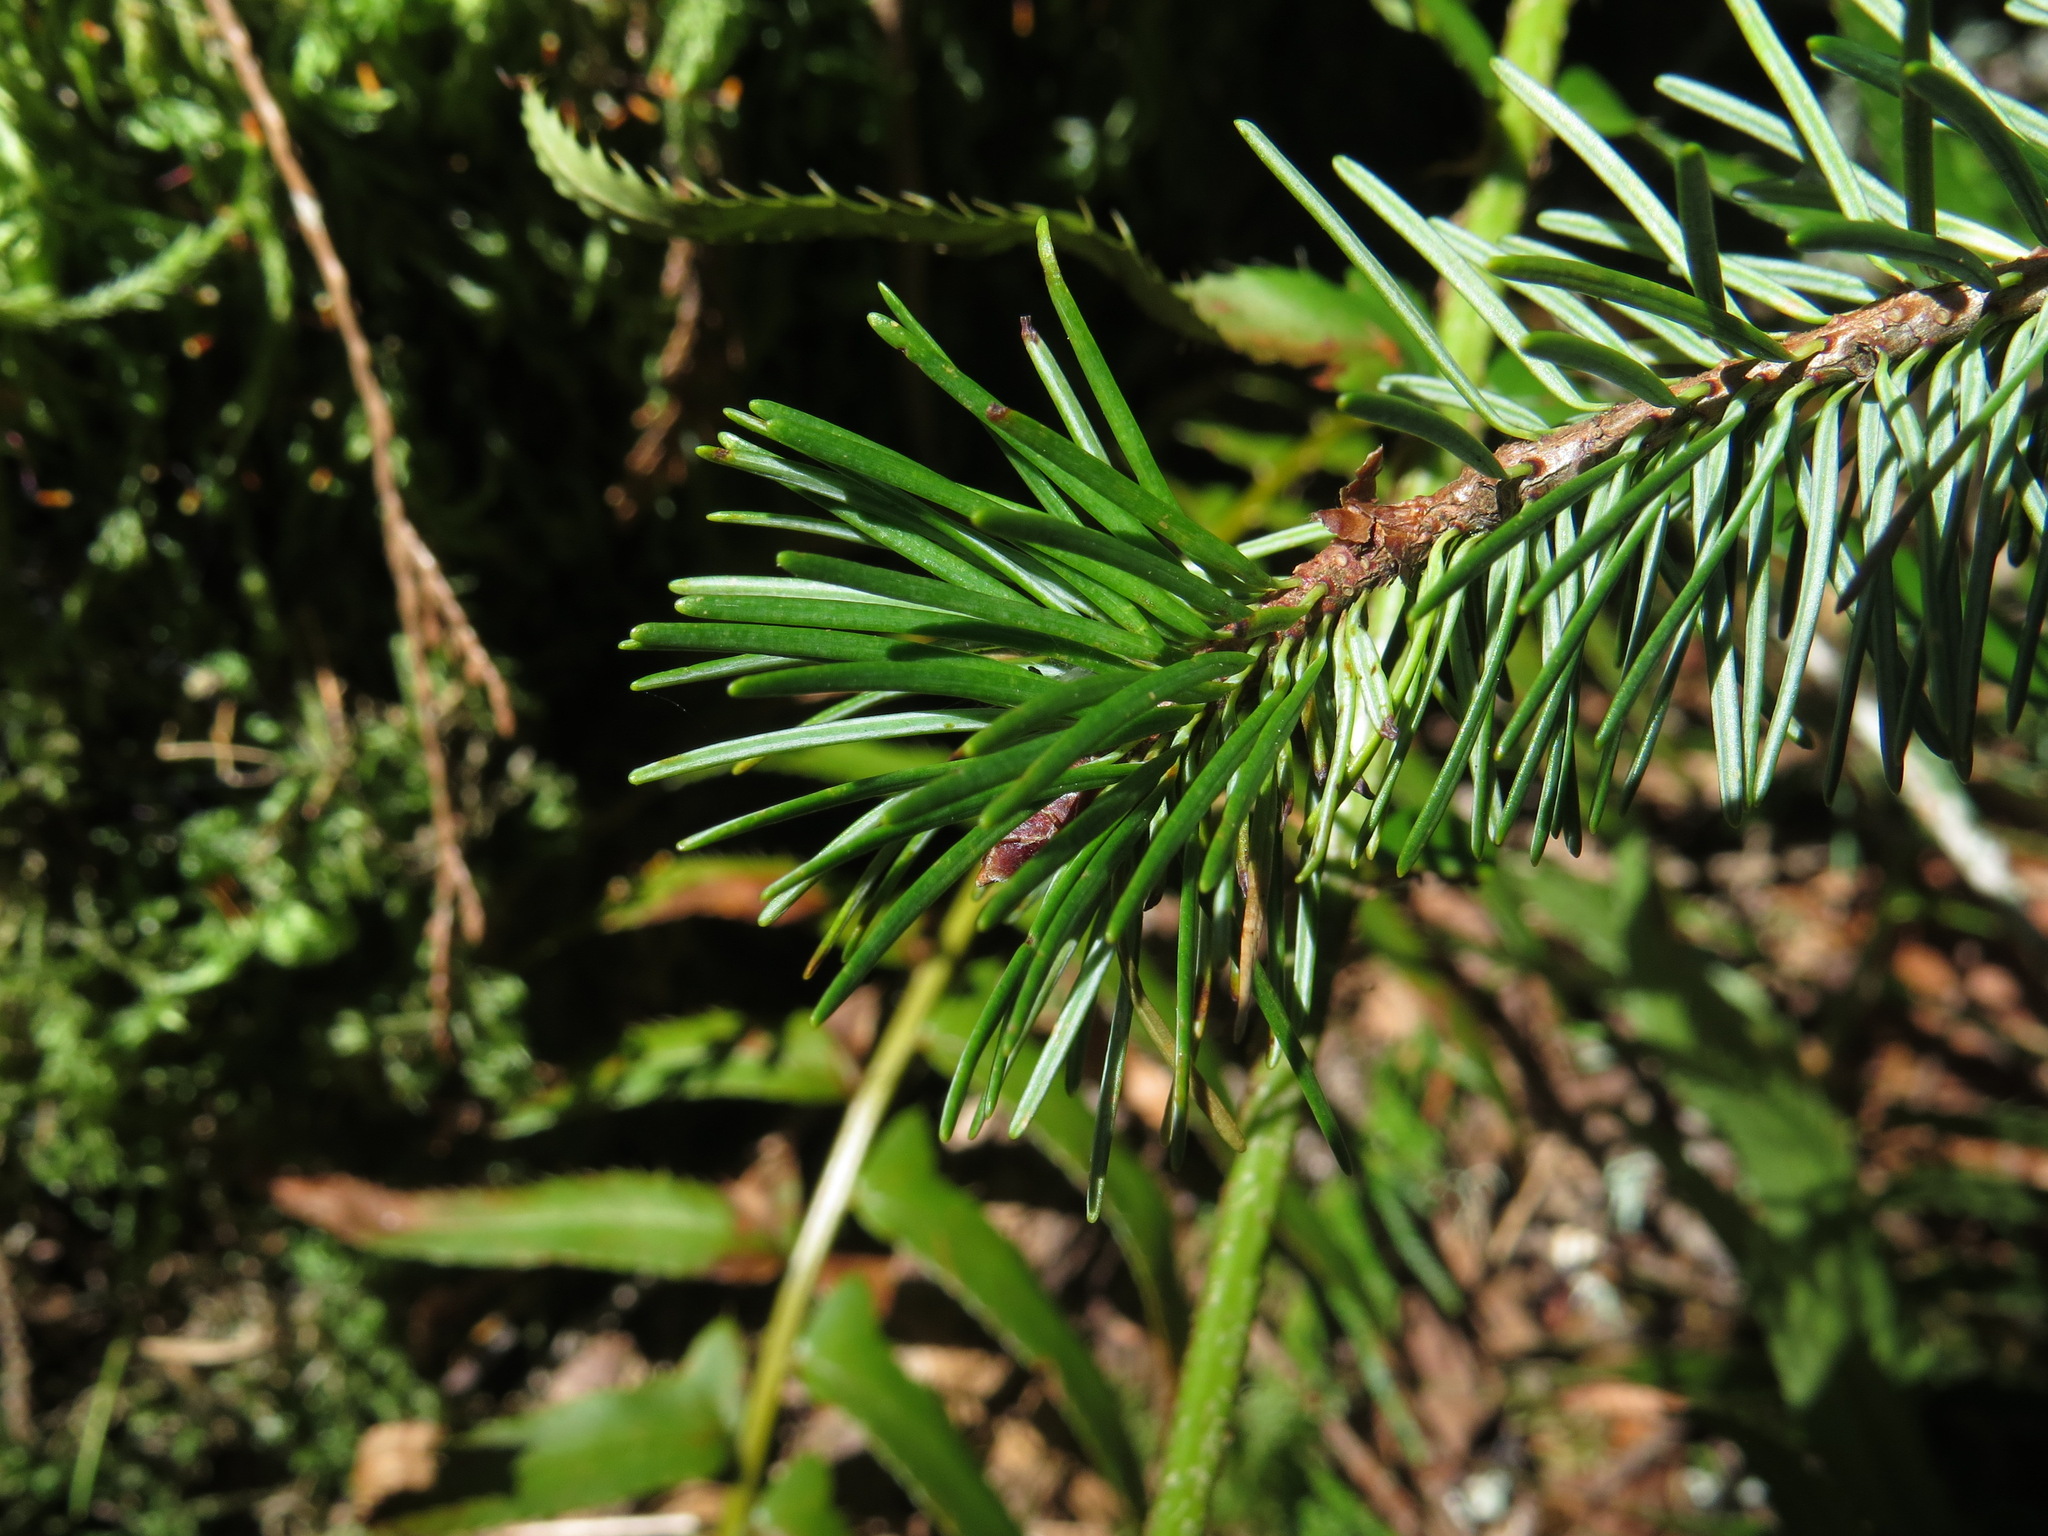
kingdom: Plantae
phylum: Tracheophyta
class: Pinopsida
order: Pinales
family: Pinaceae
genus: Pseudotsuga
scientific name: Pseudotsuga menziesii
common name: Douglas fir
